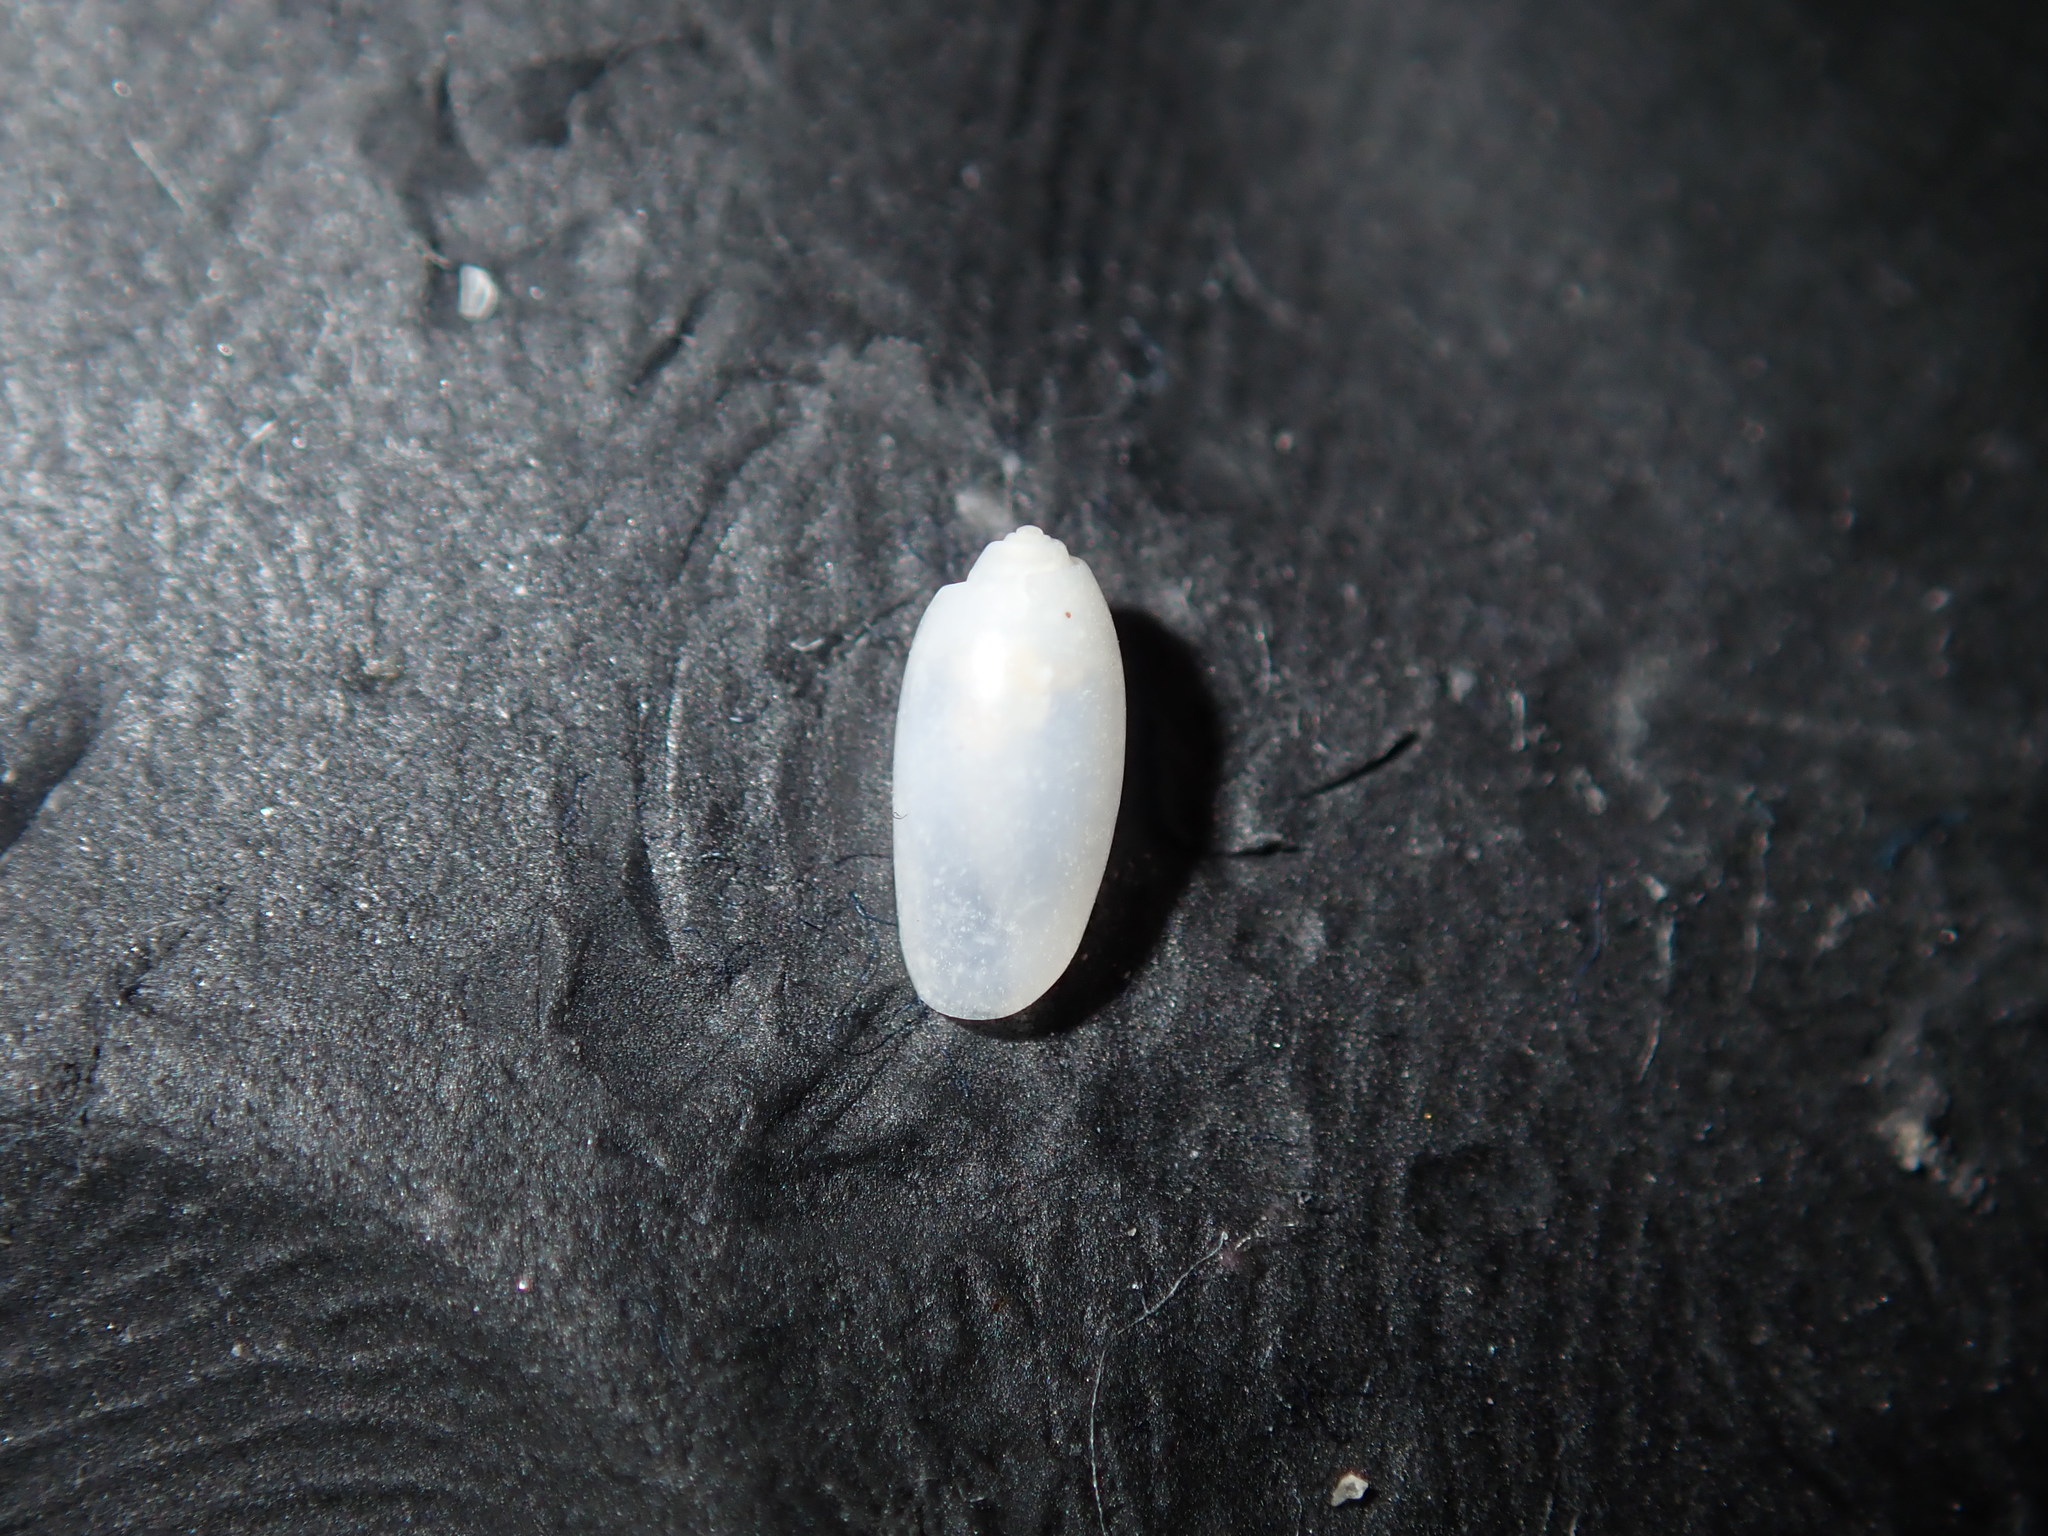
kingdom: Animalia
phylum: Mollusca
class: Gastropoda
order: Cephalaspidea
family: Tornatinidae
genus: Acteocina
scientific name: Acteocina apicina
